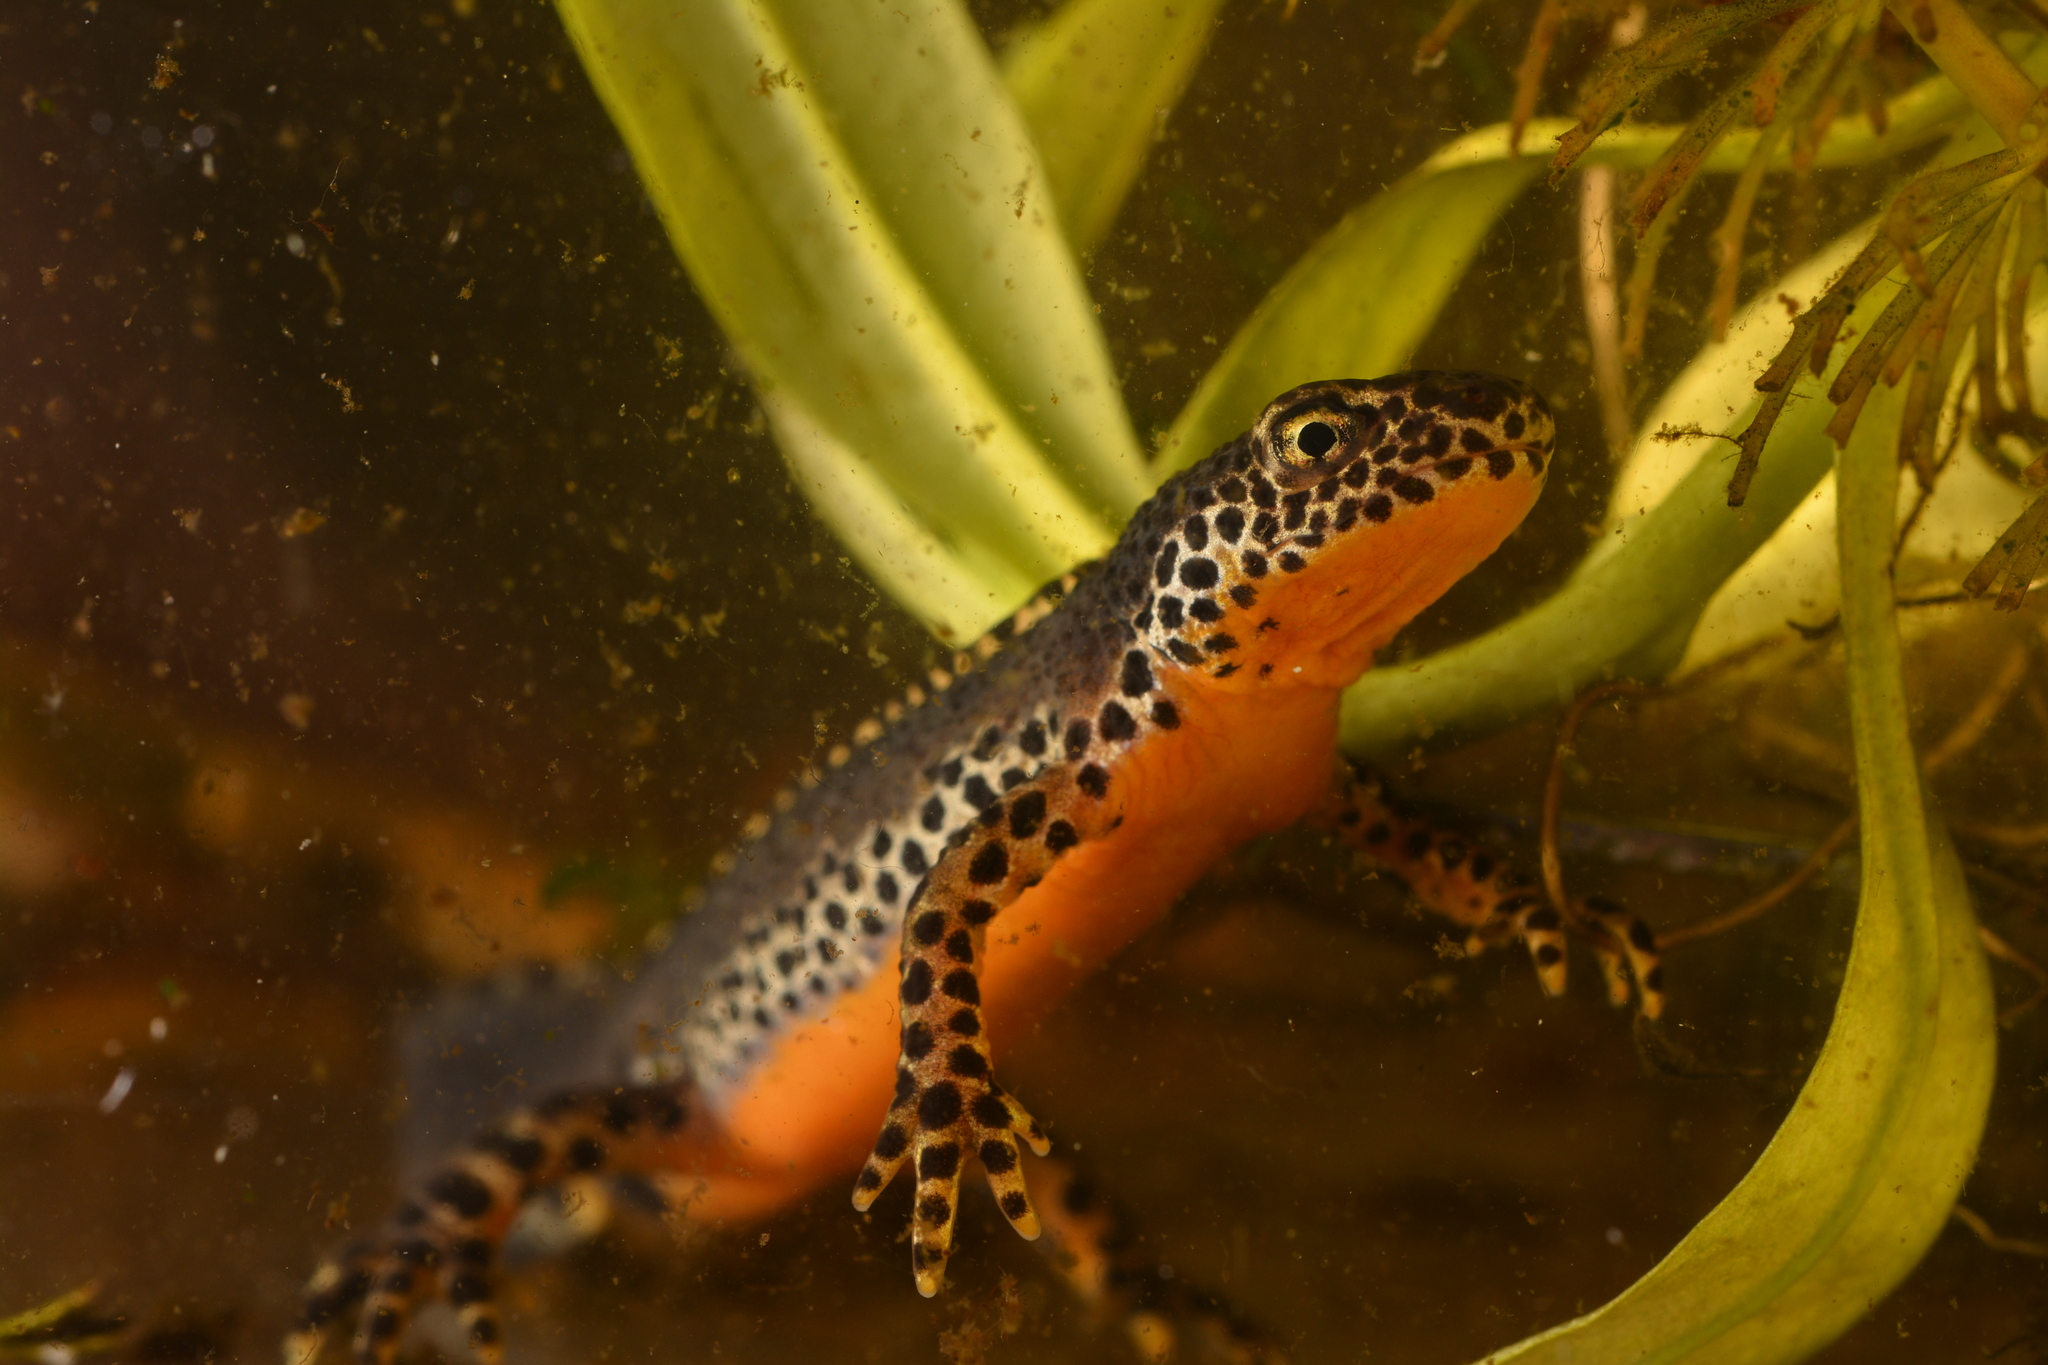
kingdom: Animalia
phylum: Chordata
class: Amphibia
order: Caudata
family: Salamandridae
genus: Ichthyosaura
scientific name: Ichthyosaura alpestris
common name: Alpine newt
